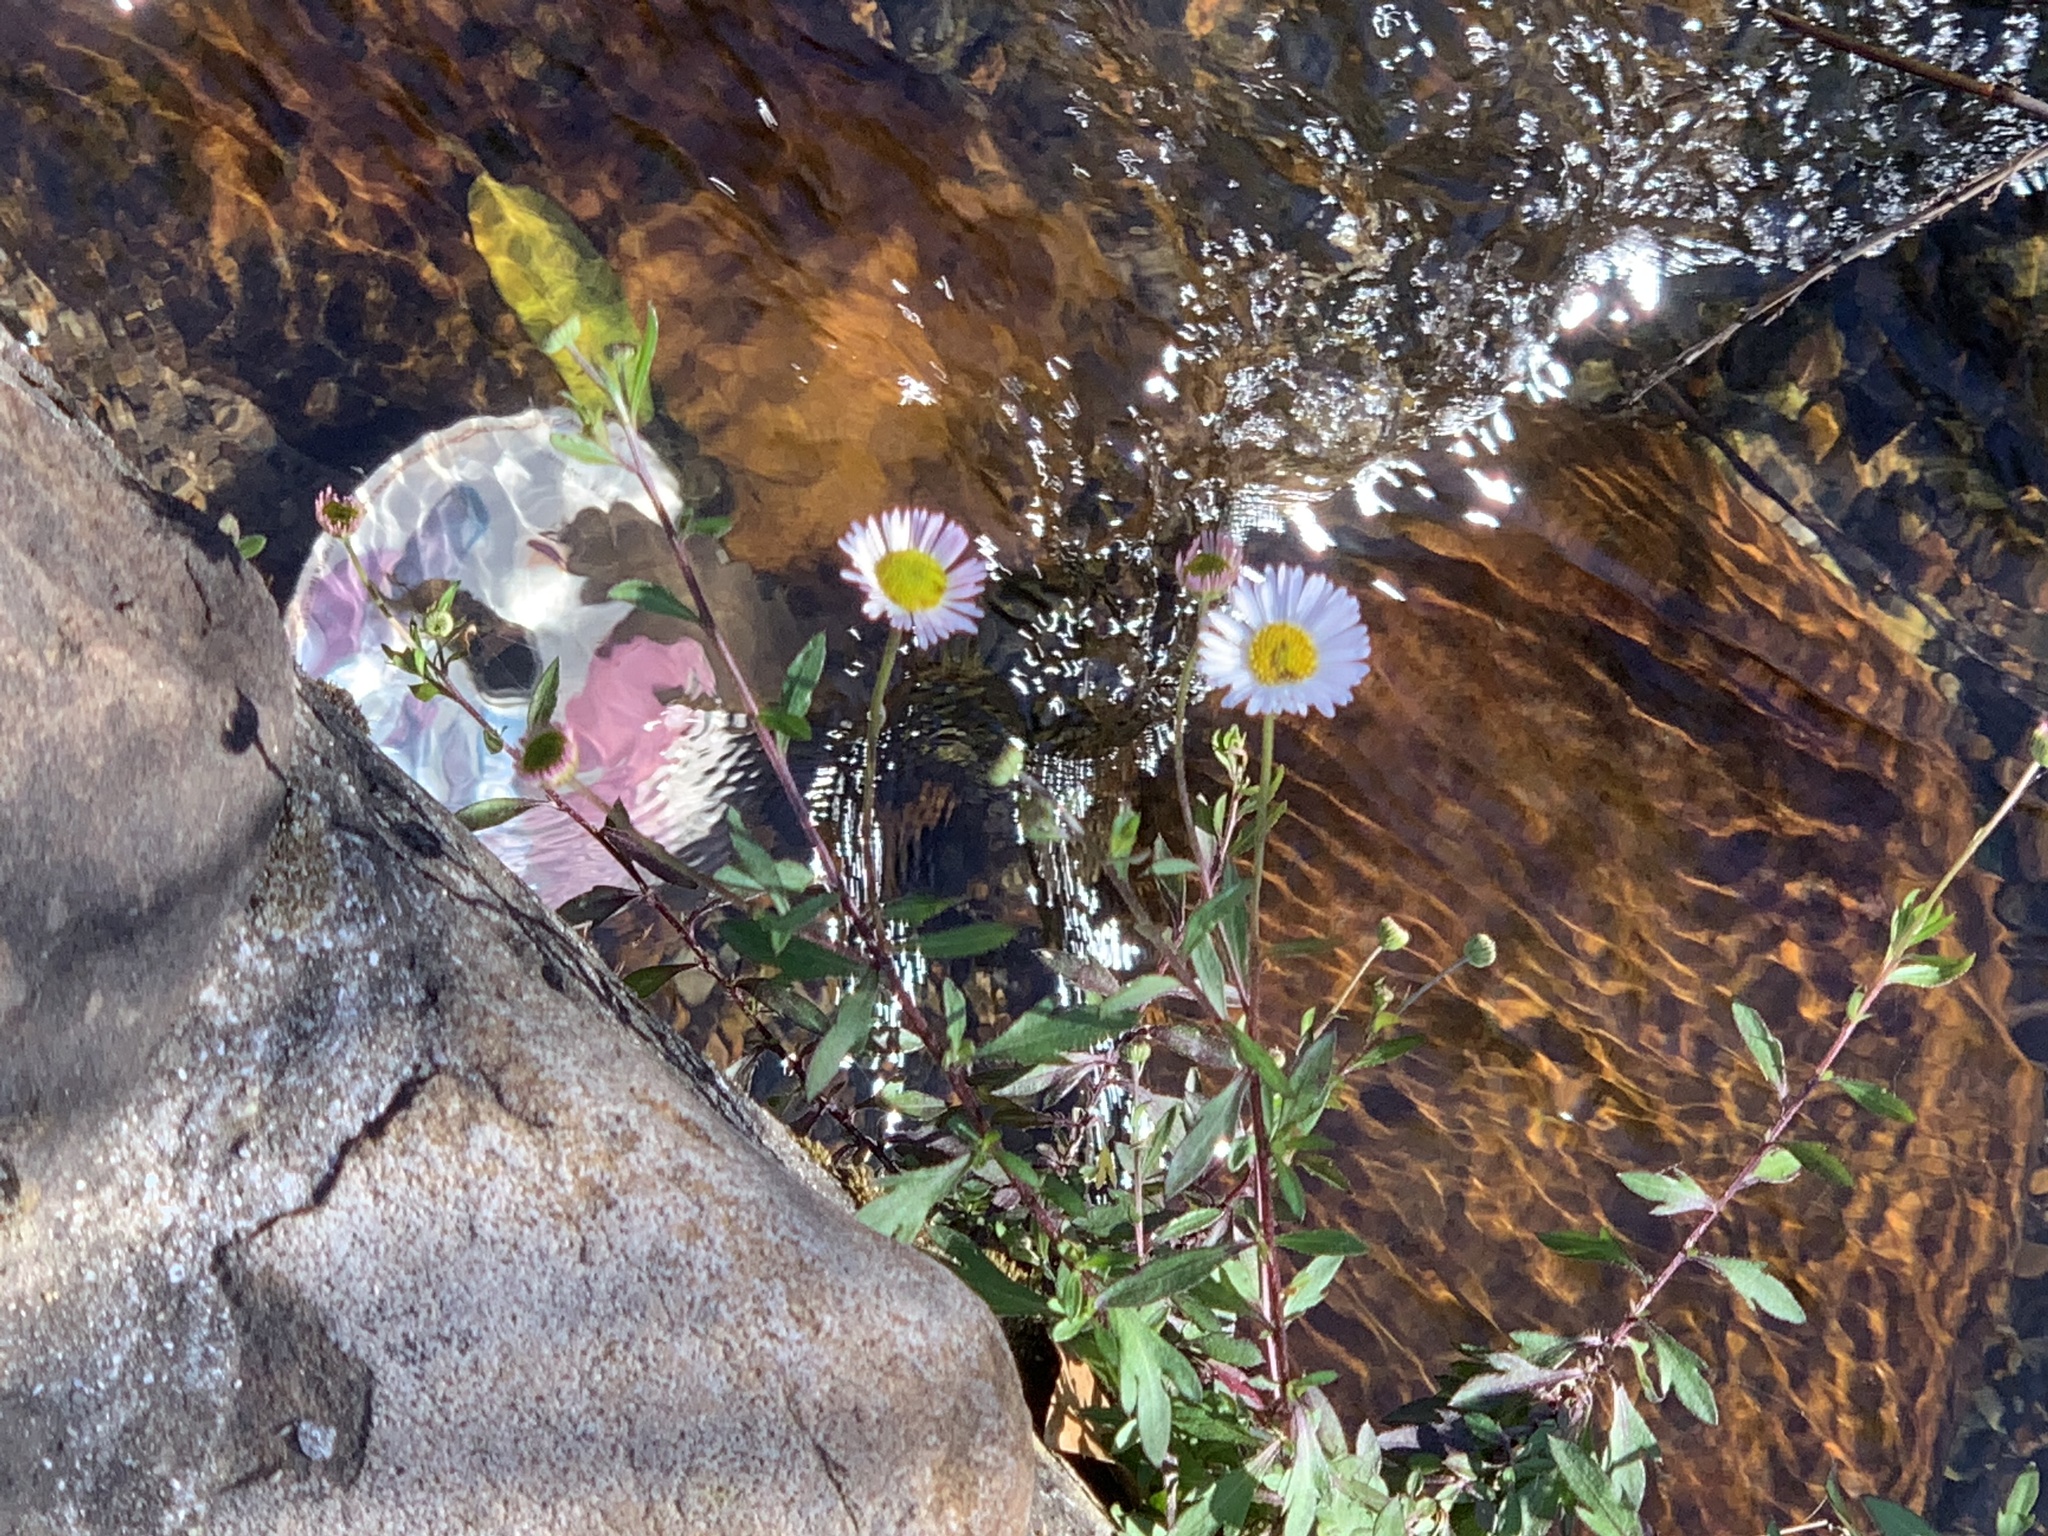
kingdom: Plantae
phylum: Tracheophyta
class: Magnoliopsida
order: Asterales
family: Asteraceae
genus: Erigeron
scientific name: Erigeron karvinskianus
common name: Mexican fleabane
